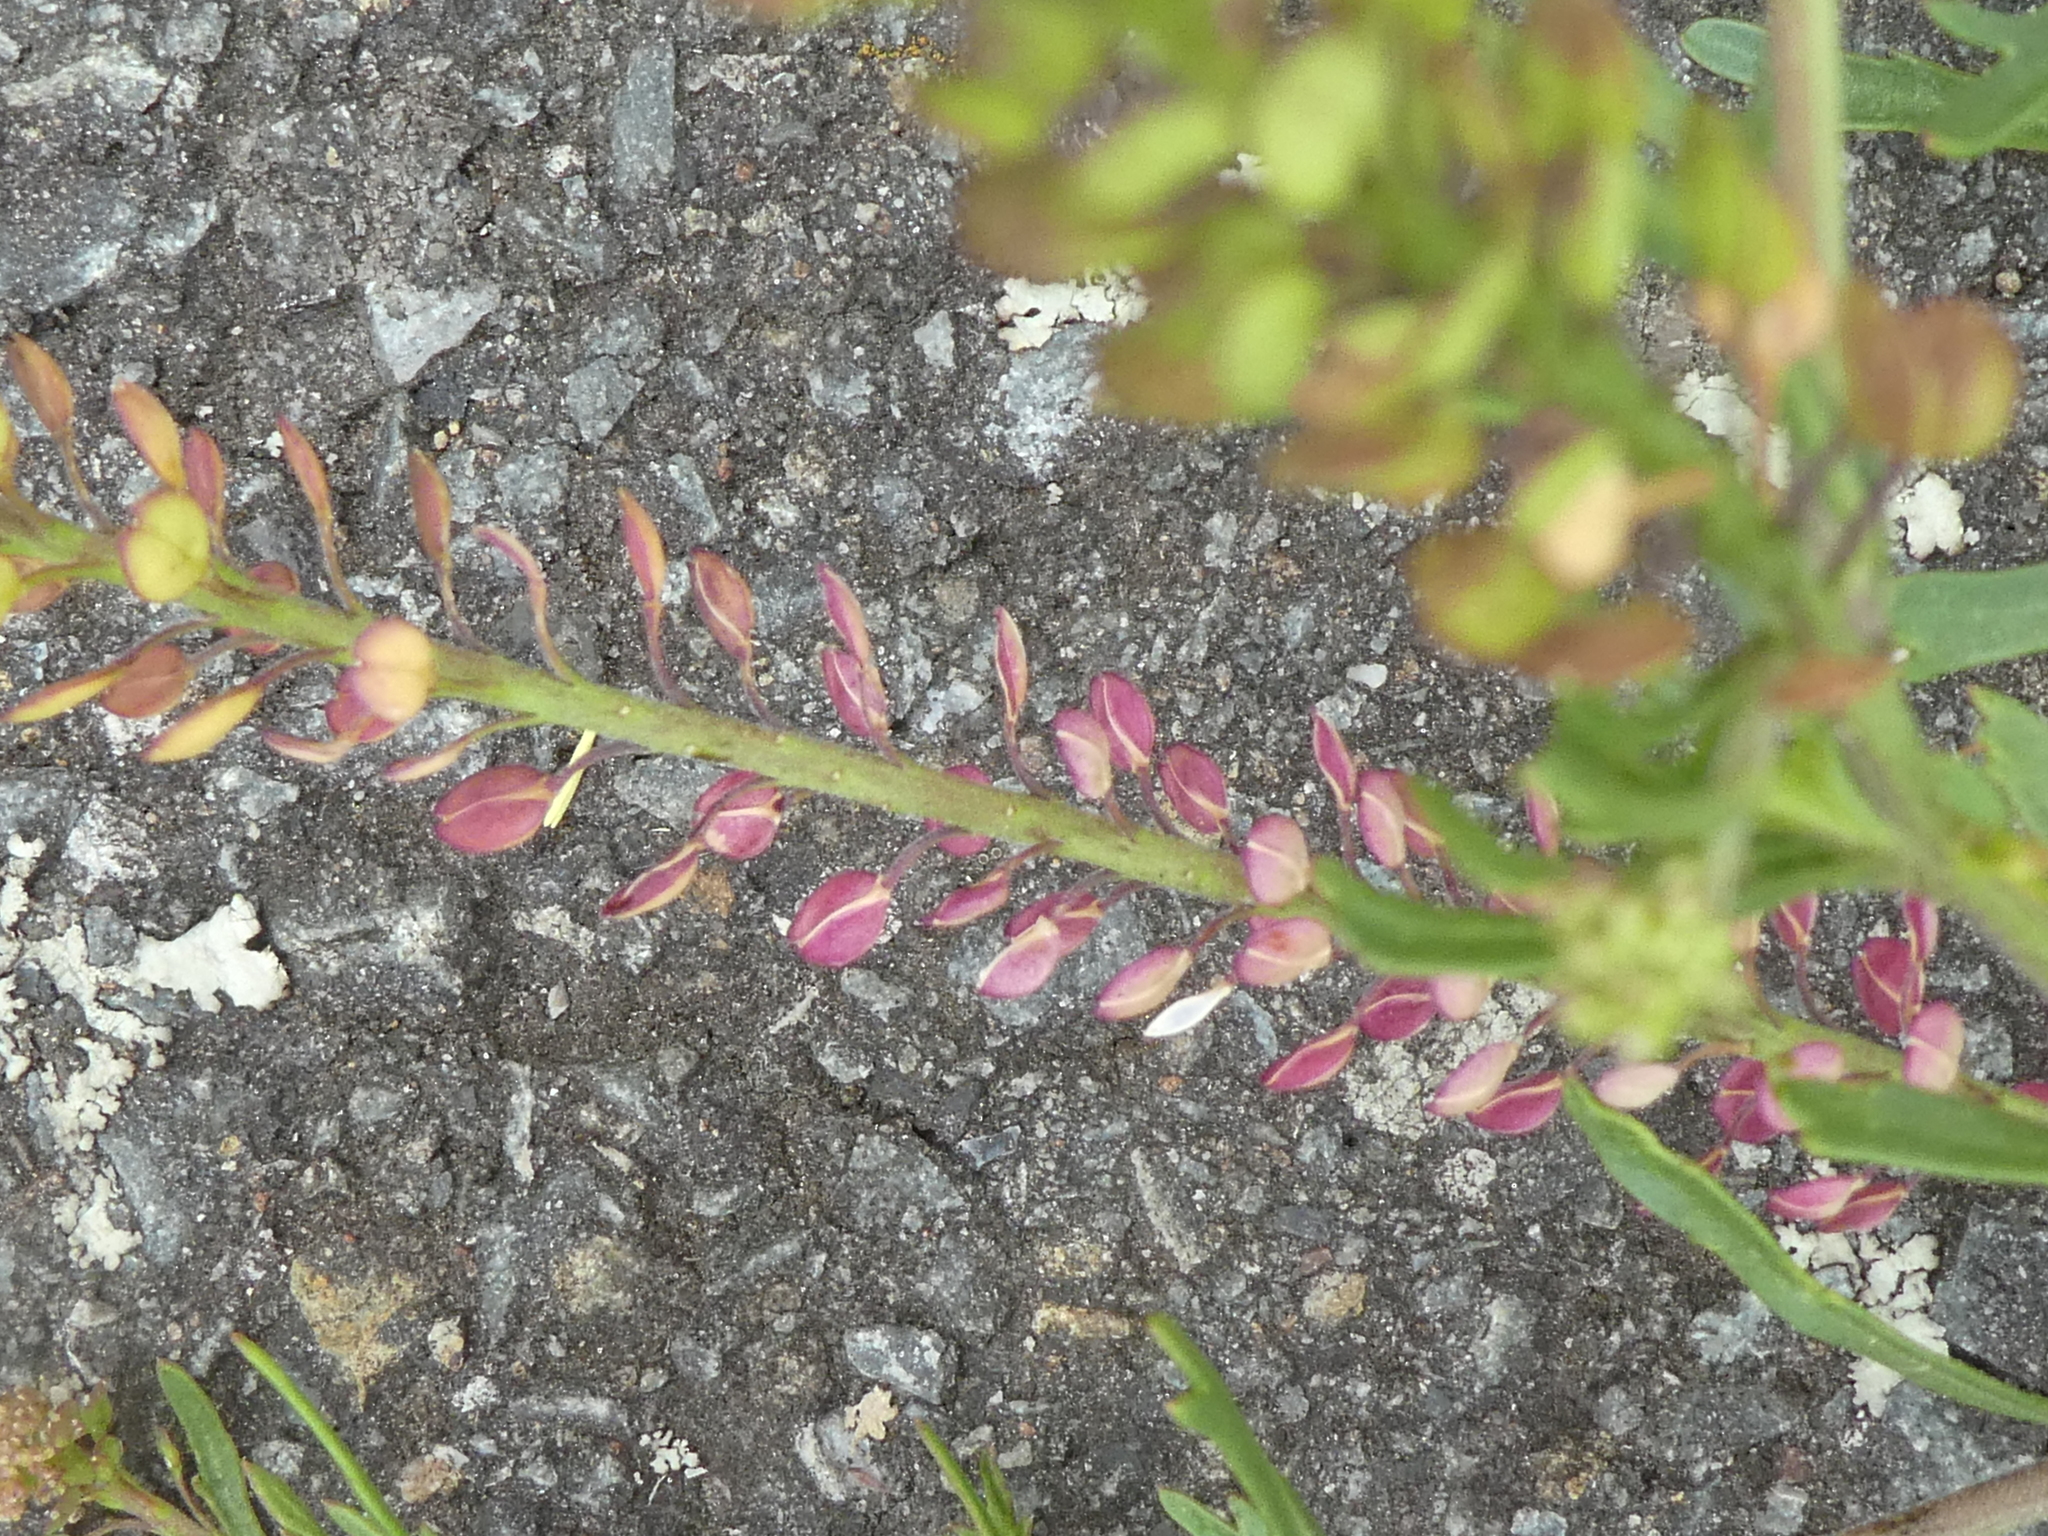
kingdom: Plantae
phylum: Tracheophyta
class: Magnoliopsida
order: Brassicales
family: Brassicaceae
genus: Lepidium
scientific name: Lepidium bonariense
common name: Argentine pepperwort
